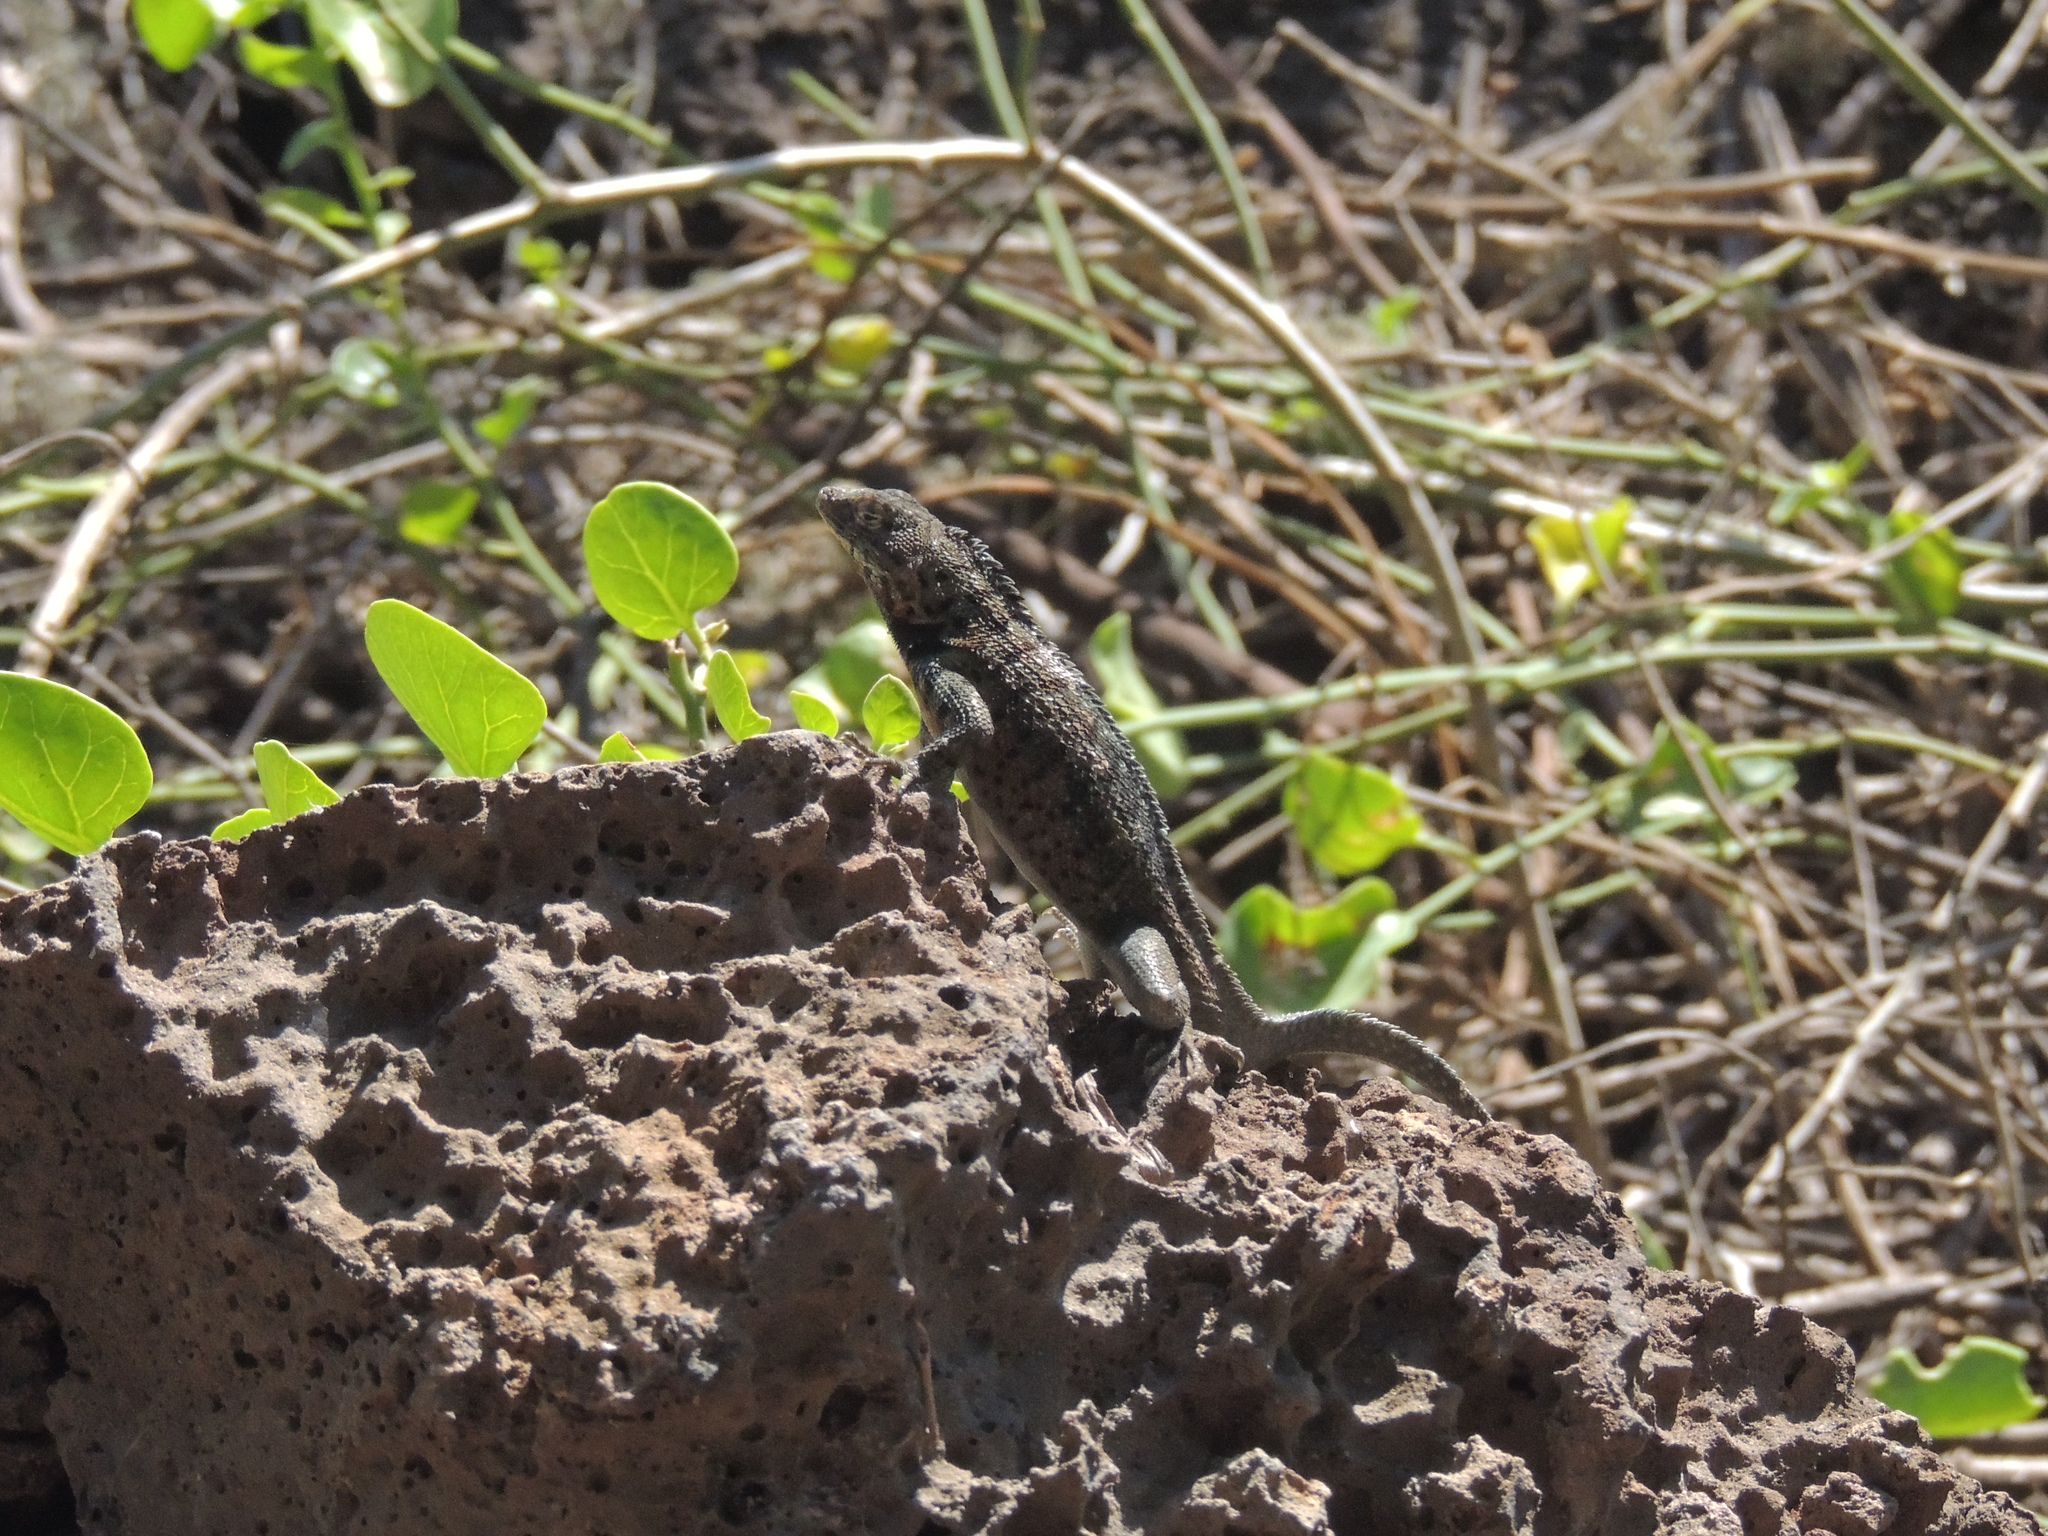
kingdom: Animalia
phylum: Chordata
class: Squamata
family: Tropiduridae
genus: Microlophus
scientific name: Microlophus indefatigabilis
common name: Galapagos lava lizard
